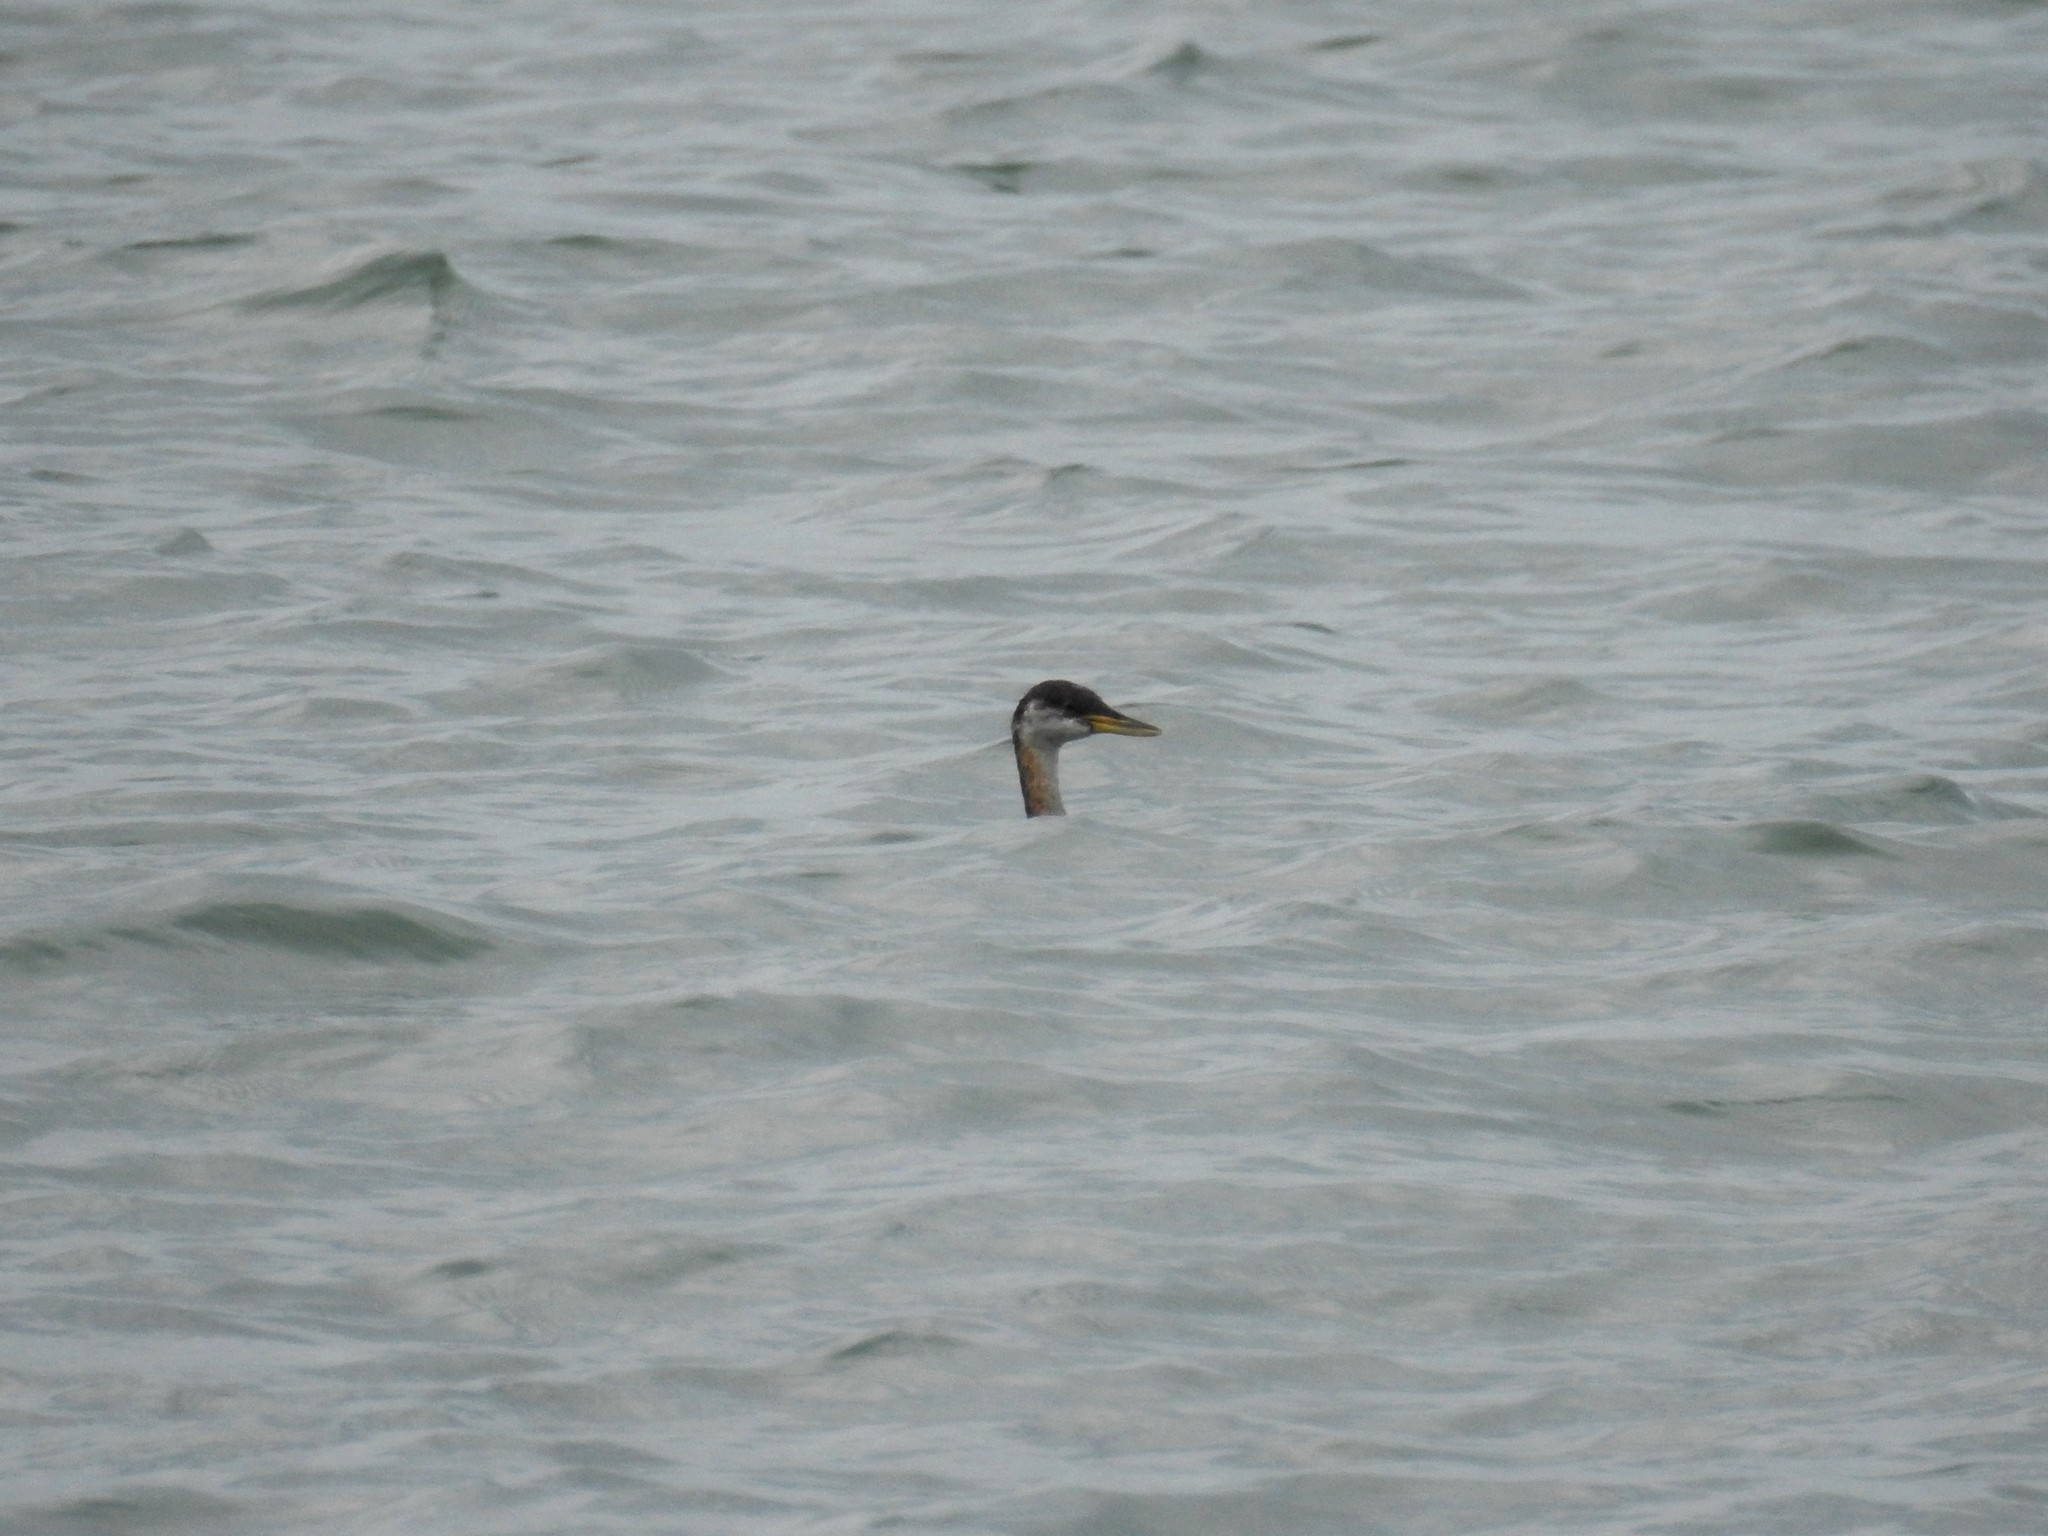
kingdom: Animalia
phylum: Chordata
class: Aves
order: Podicipediformes
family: Podicipedidae
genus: Podiceps
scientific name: Podiceps grisegena
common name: Red-necked grebe
